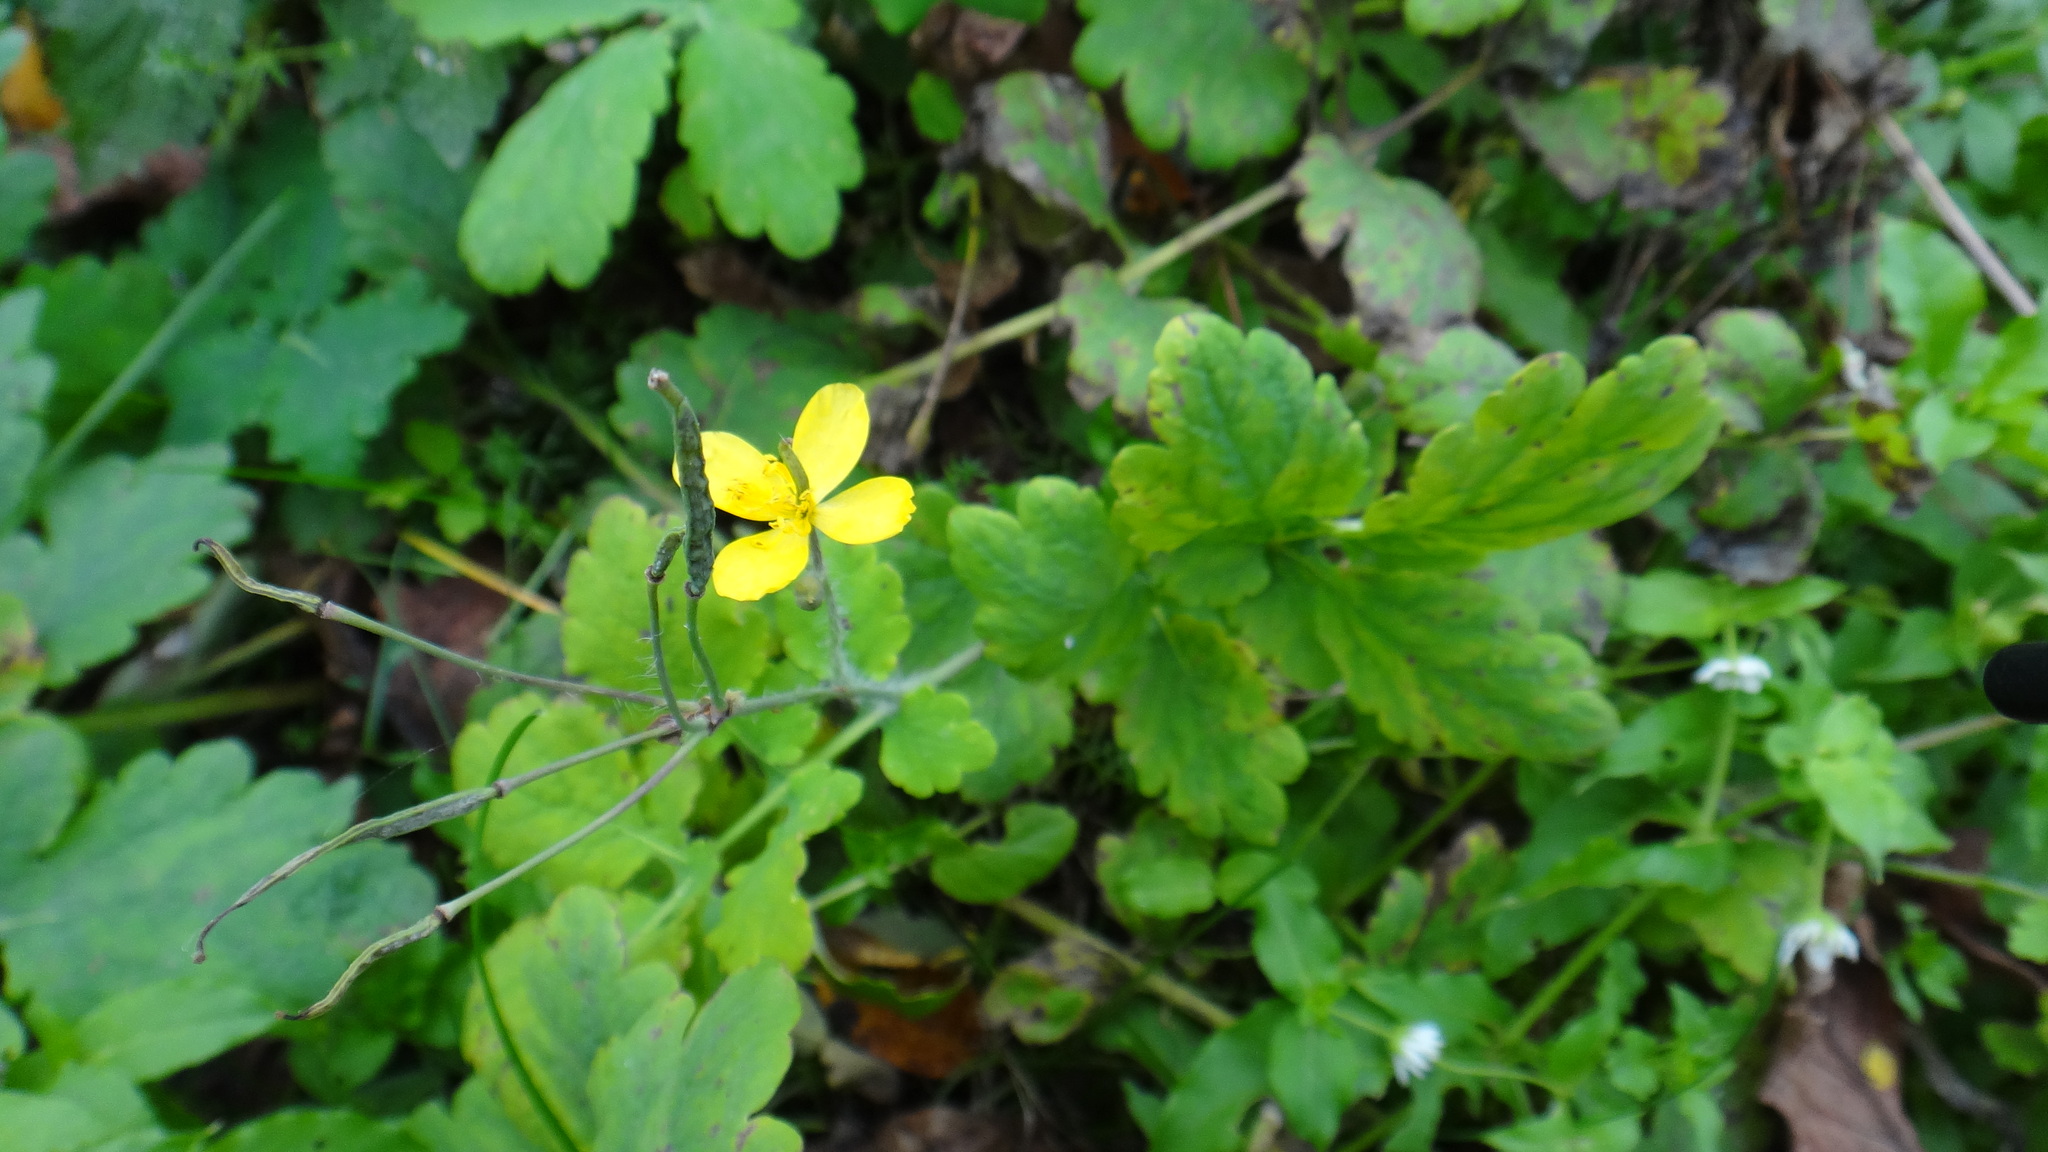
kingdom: Plantae
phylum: Tracheophyta
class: Magnoliopsida
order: Ranunculales
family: Papaveraceae
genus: Chelidonium
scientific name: Chelidonium majus
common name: Greater celandine
